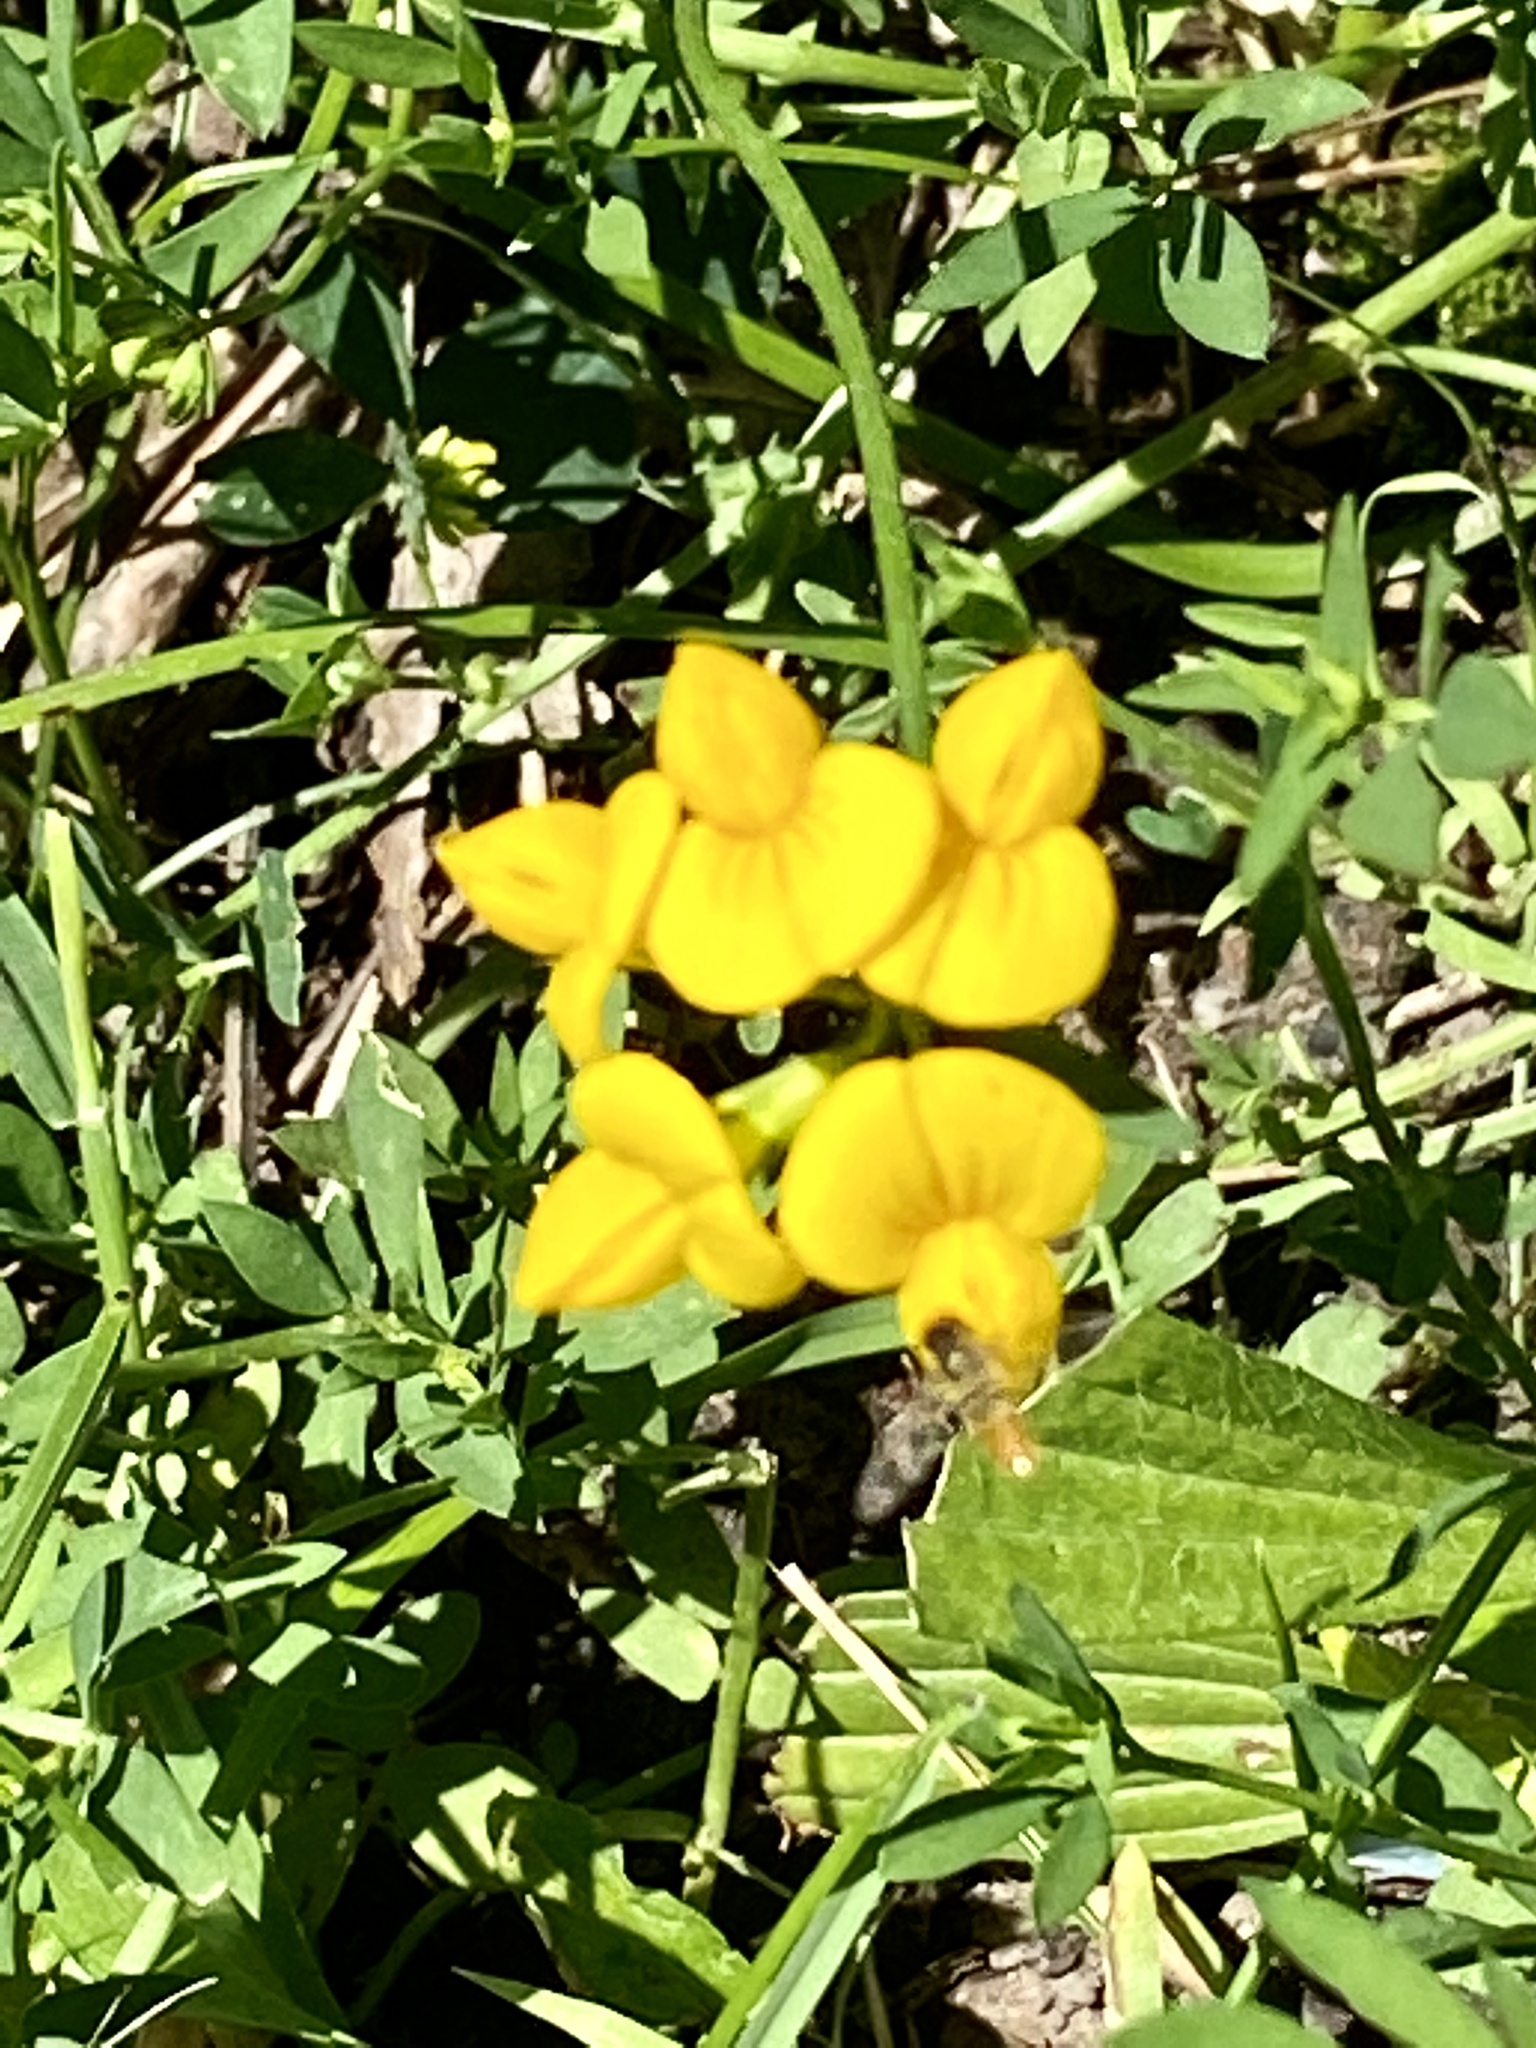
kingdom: Plantae
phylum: Tracheophyta
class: Magnoliopsida
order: Fabales
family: Fabaceae
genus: Lotus
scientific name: Lotus corniculatus
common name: Common bird's-foot-trefoil
